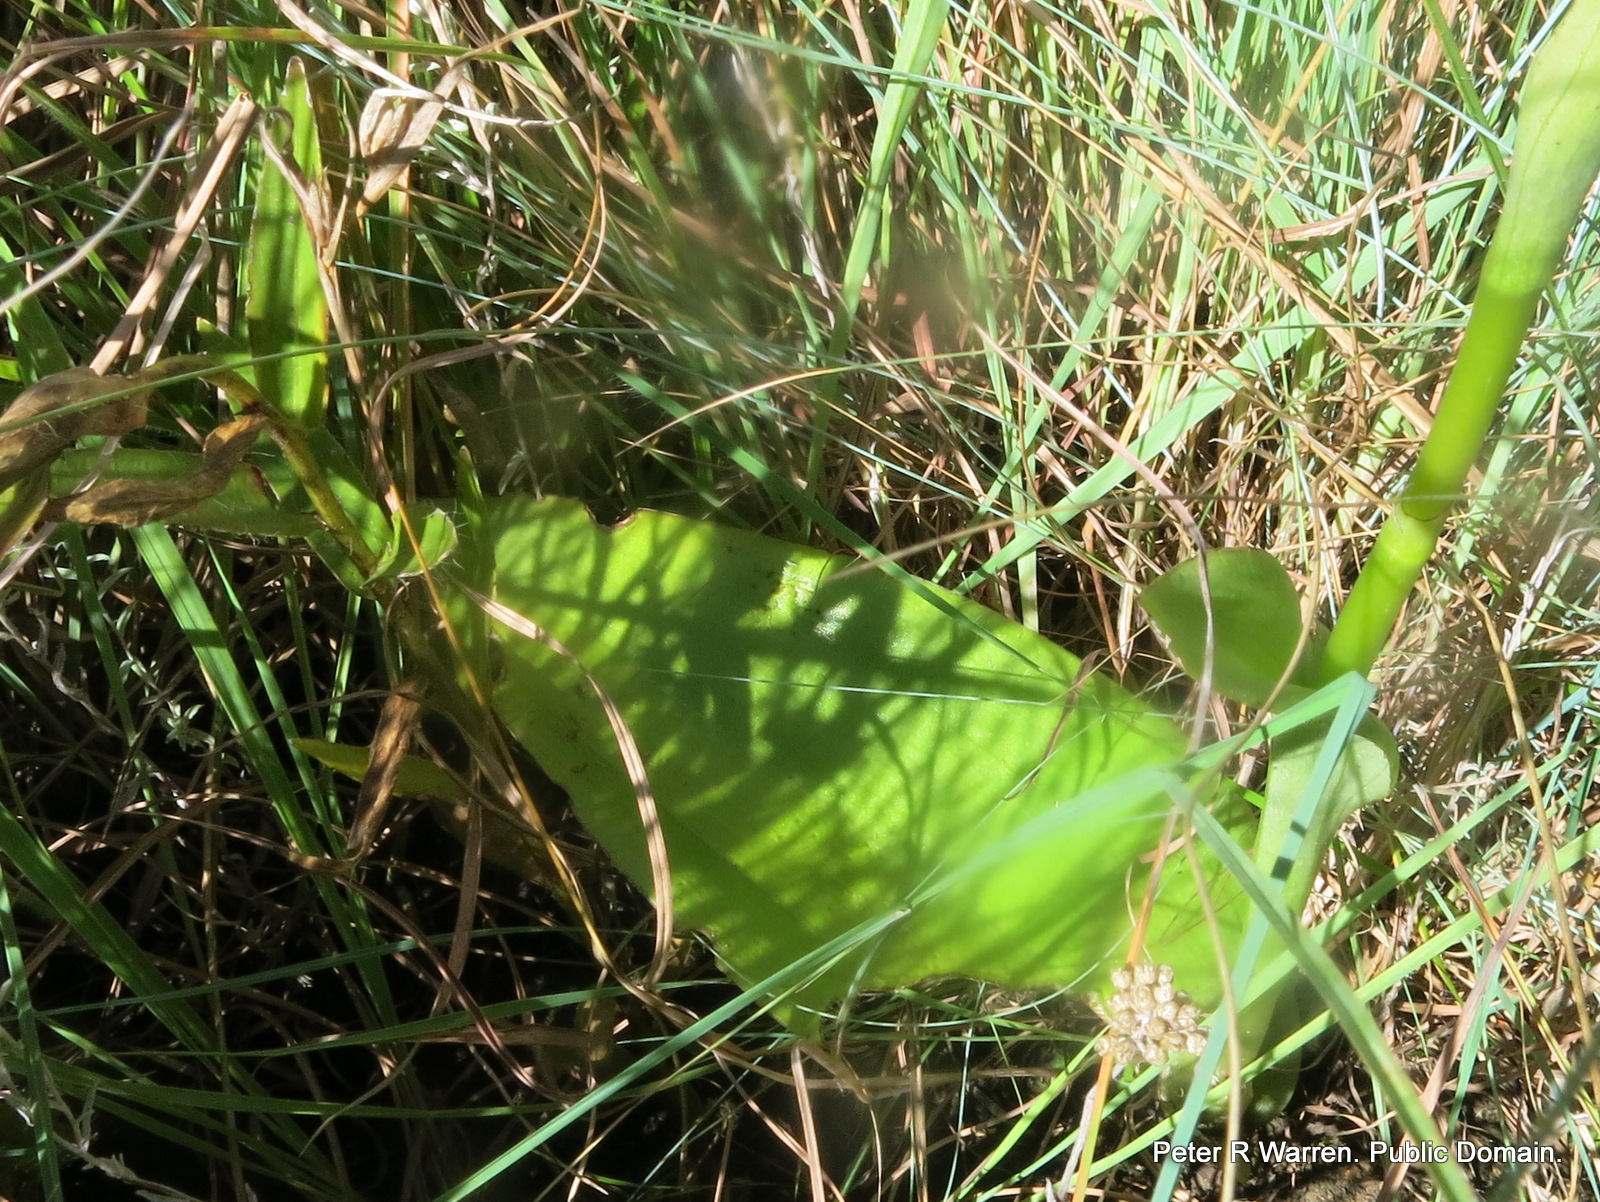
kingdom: Plantae
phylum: Tracheophyta
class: Liliopsida
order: Asparagales
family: Orchidaceae
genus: Satyrium
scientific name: Satyrium macrophyllum
